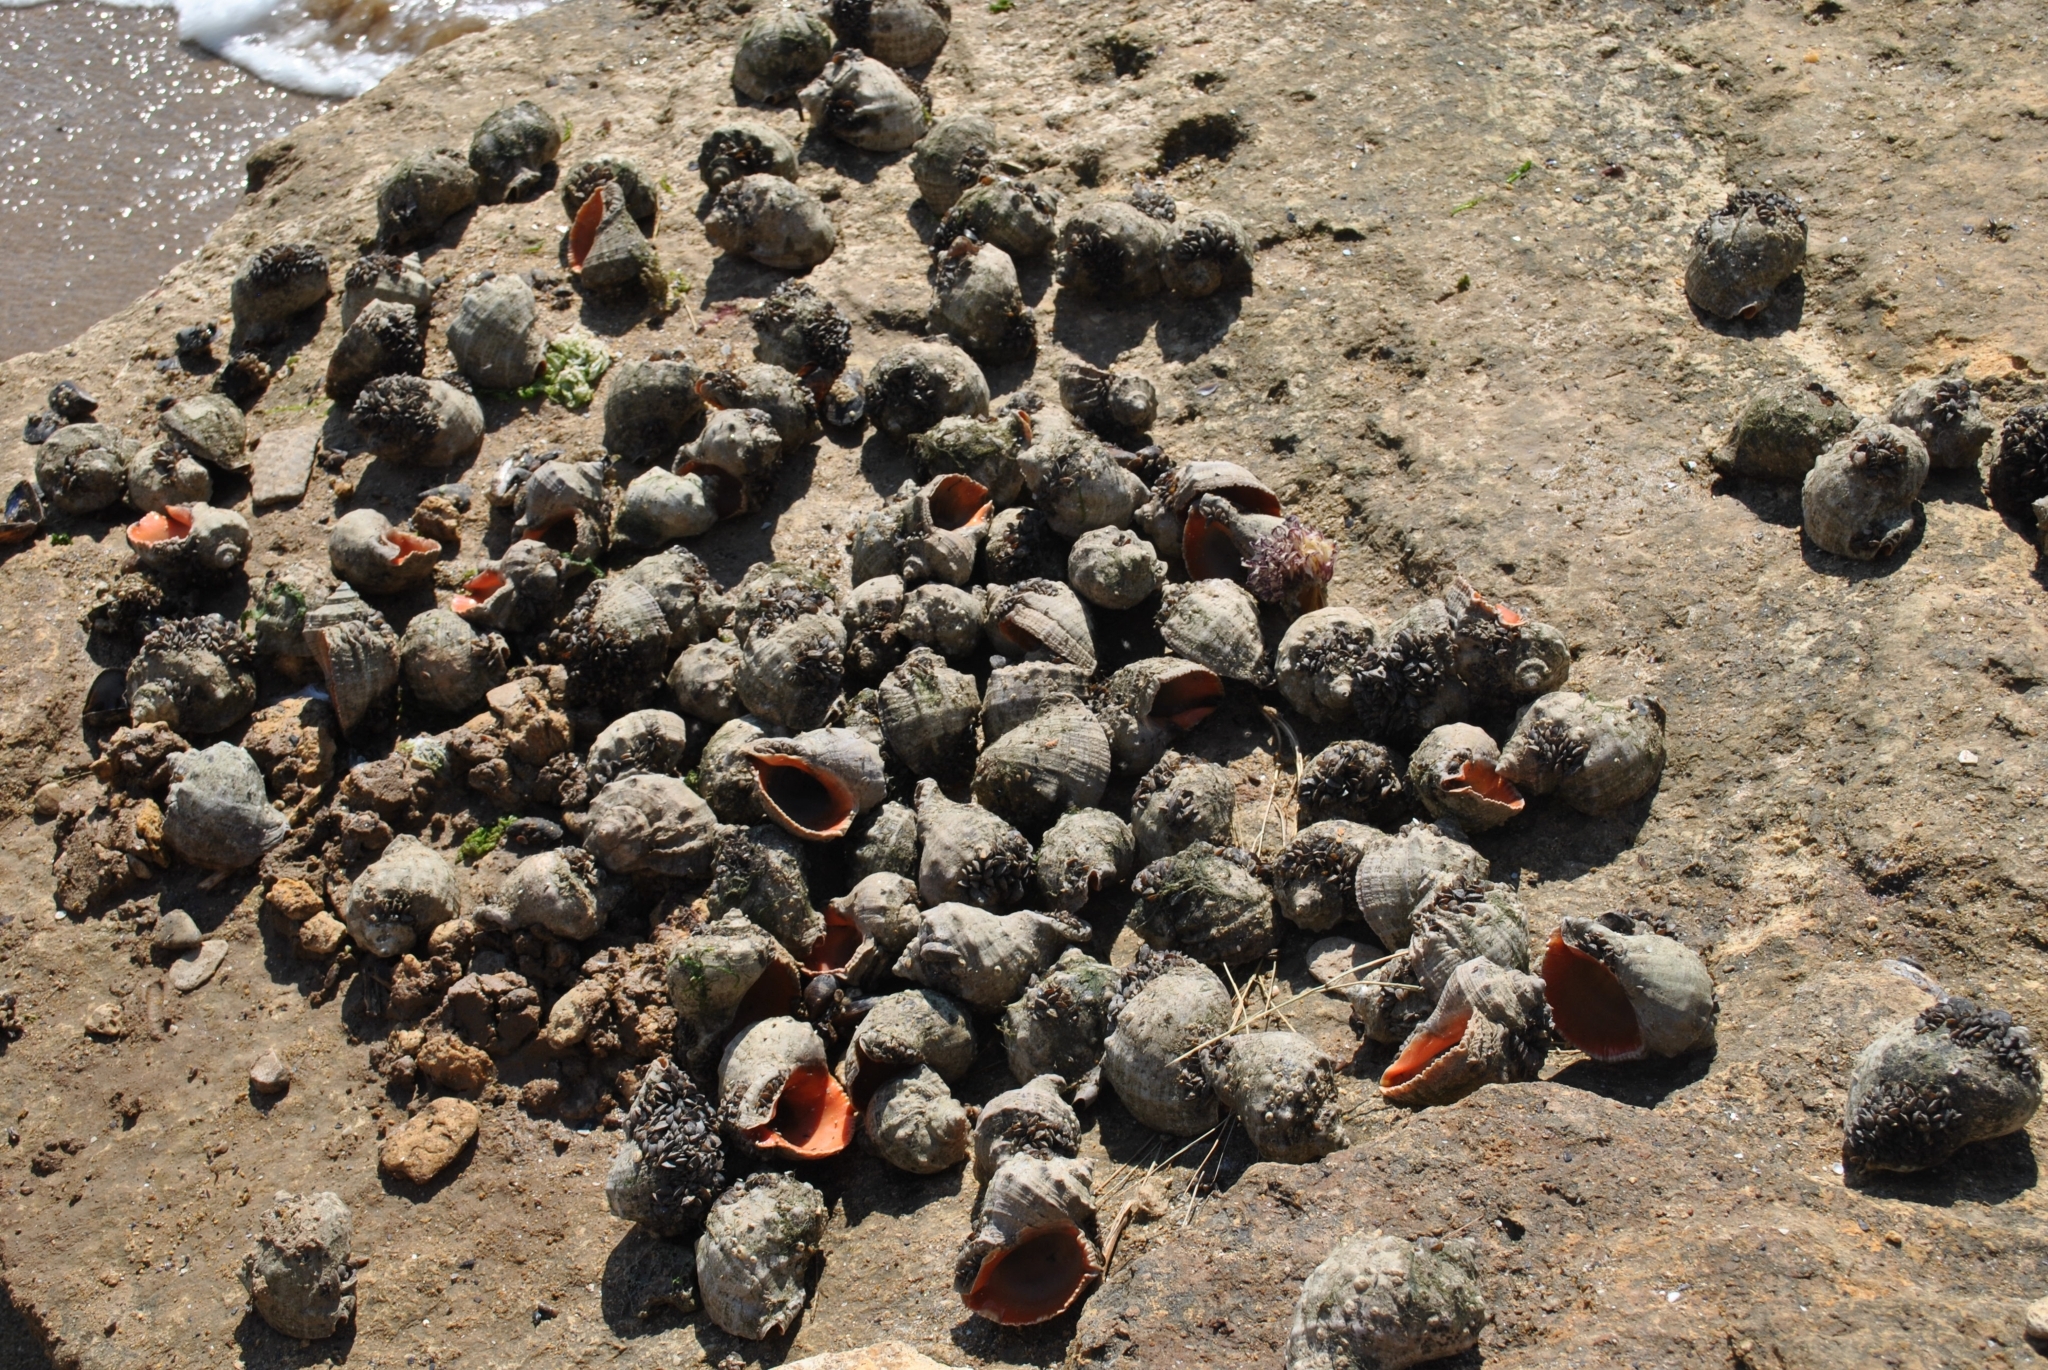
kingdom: Animalia
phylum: Mollusca
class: Gastropoda
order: Neogastropoda
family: Muricidae
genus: Rapana
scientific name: Rapana venosa
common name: Veined rapa whelk
